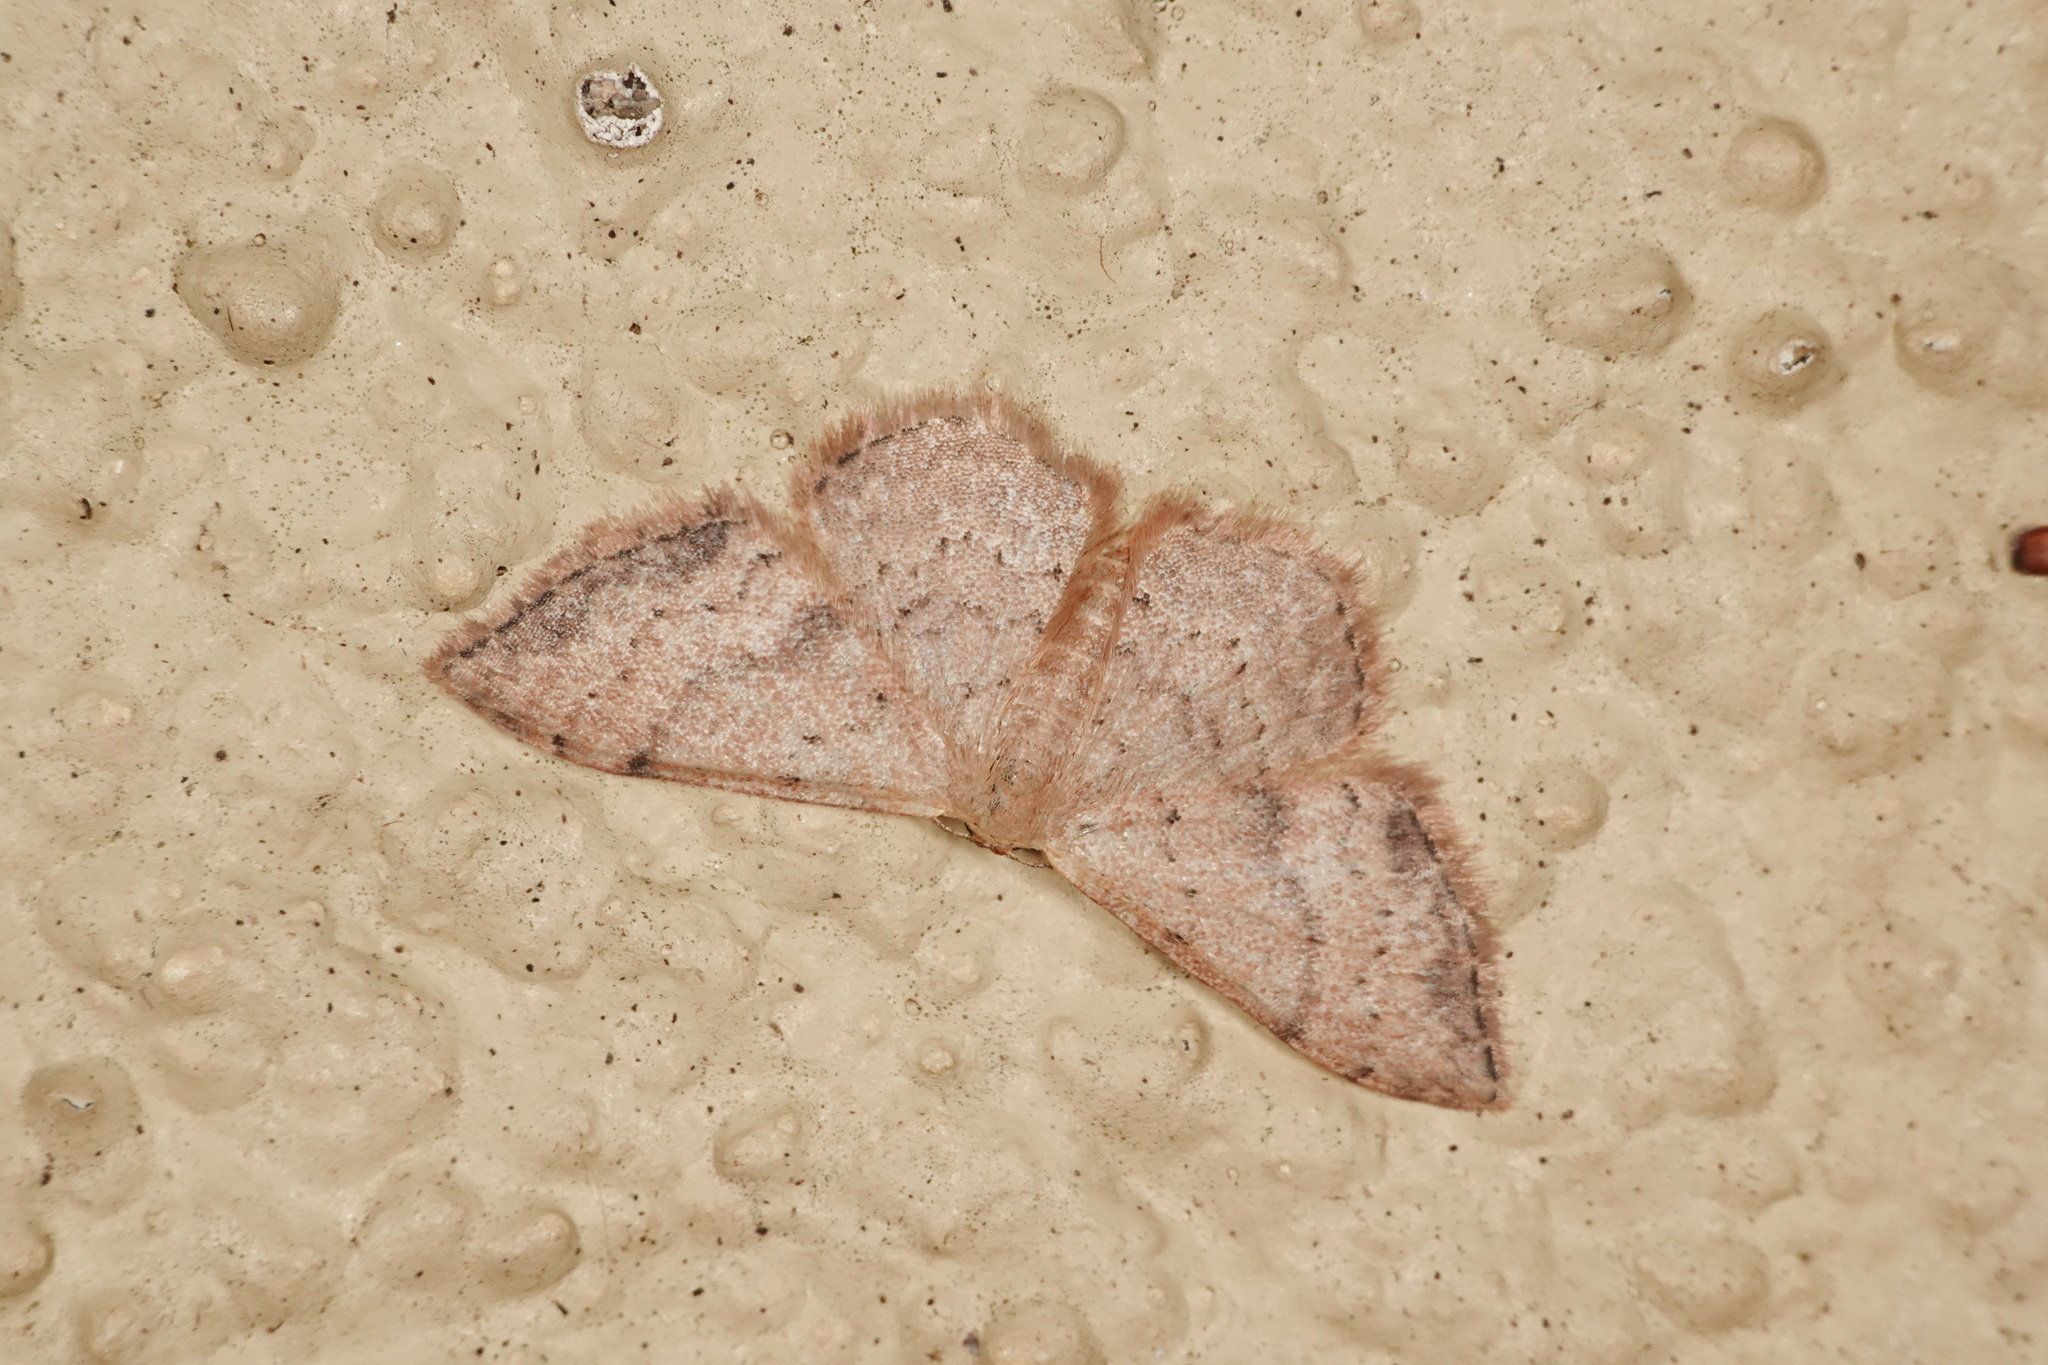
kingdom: Animalia
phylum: Arthropoda
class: Insecta
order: Lepidoptera
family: Geometridae
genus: Idaea
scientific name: Idaea halmaea
